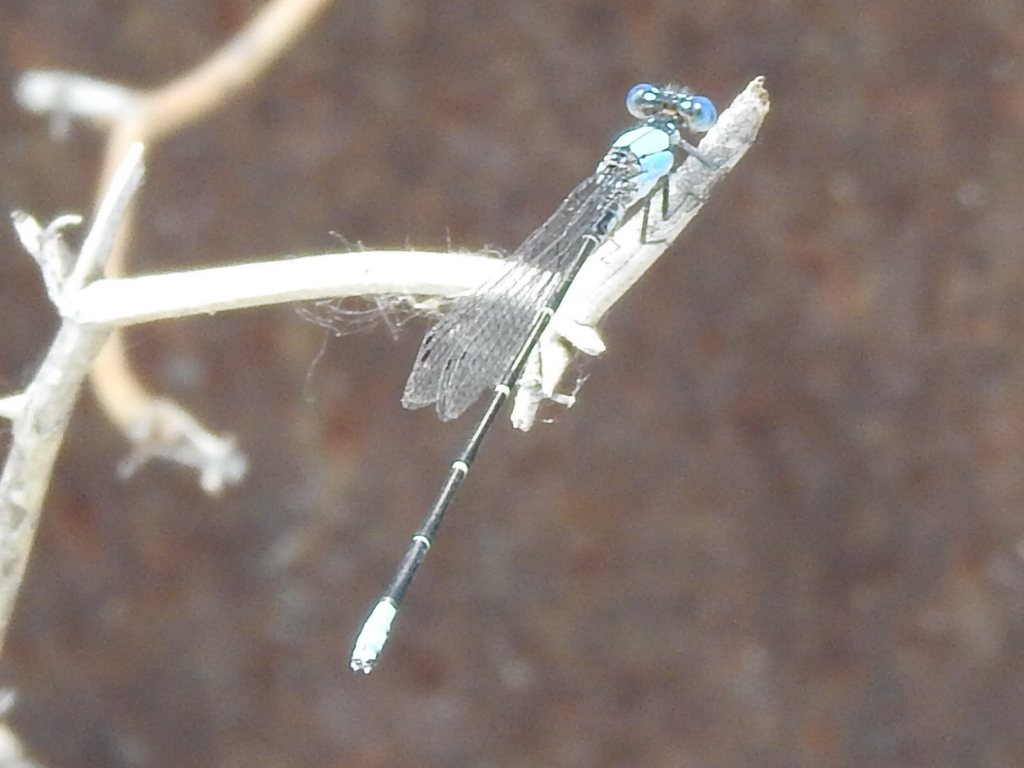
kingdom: Animalia
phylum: Arthropoda
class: Insecta
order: Odonata
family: Coenagrionidae
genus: Argia
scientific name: Argia apicalis
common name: Blue-fronted dancer
